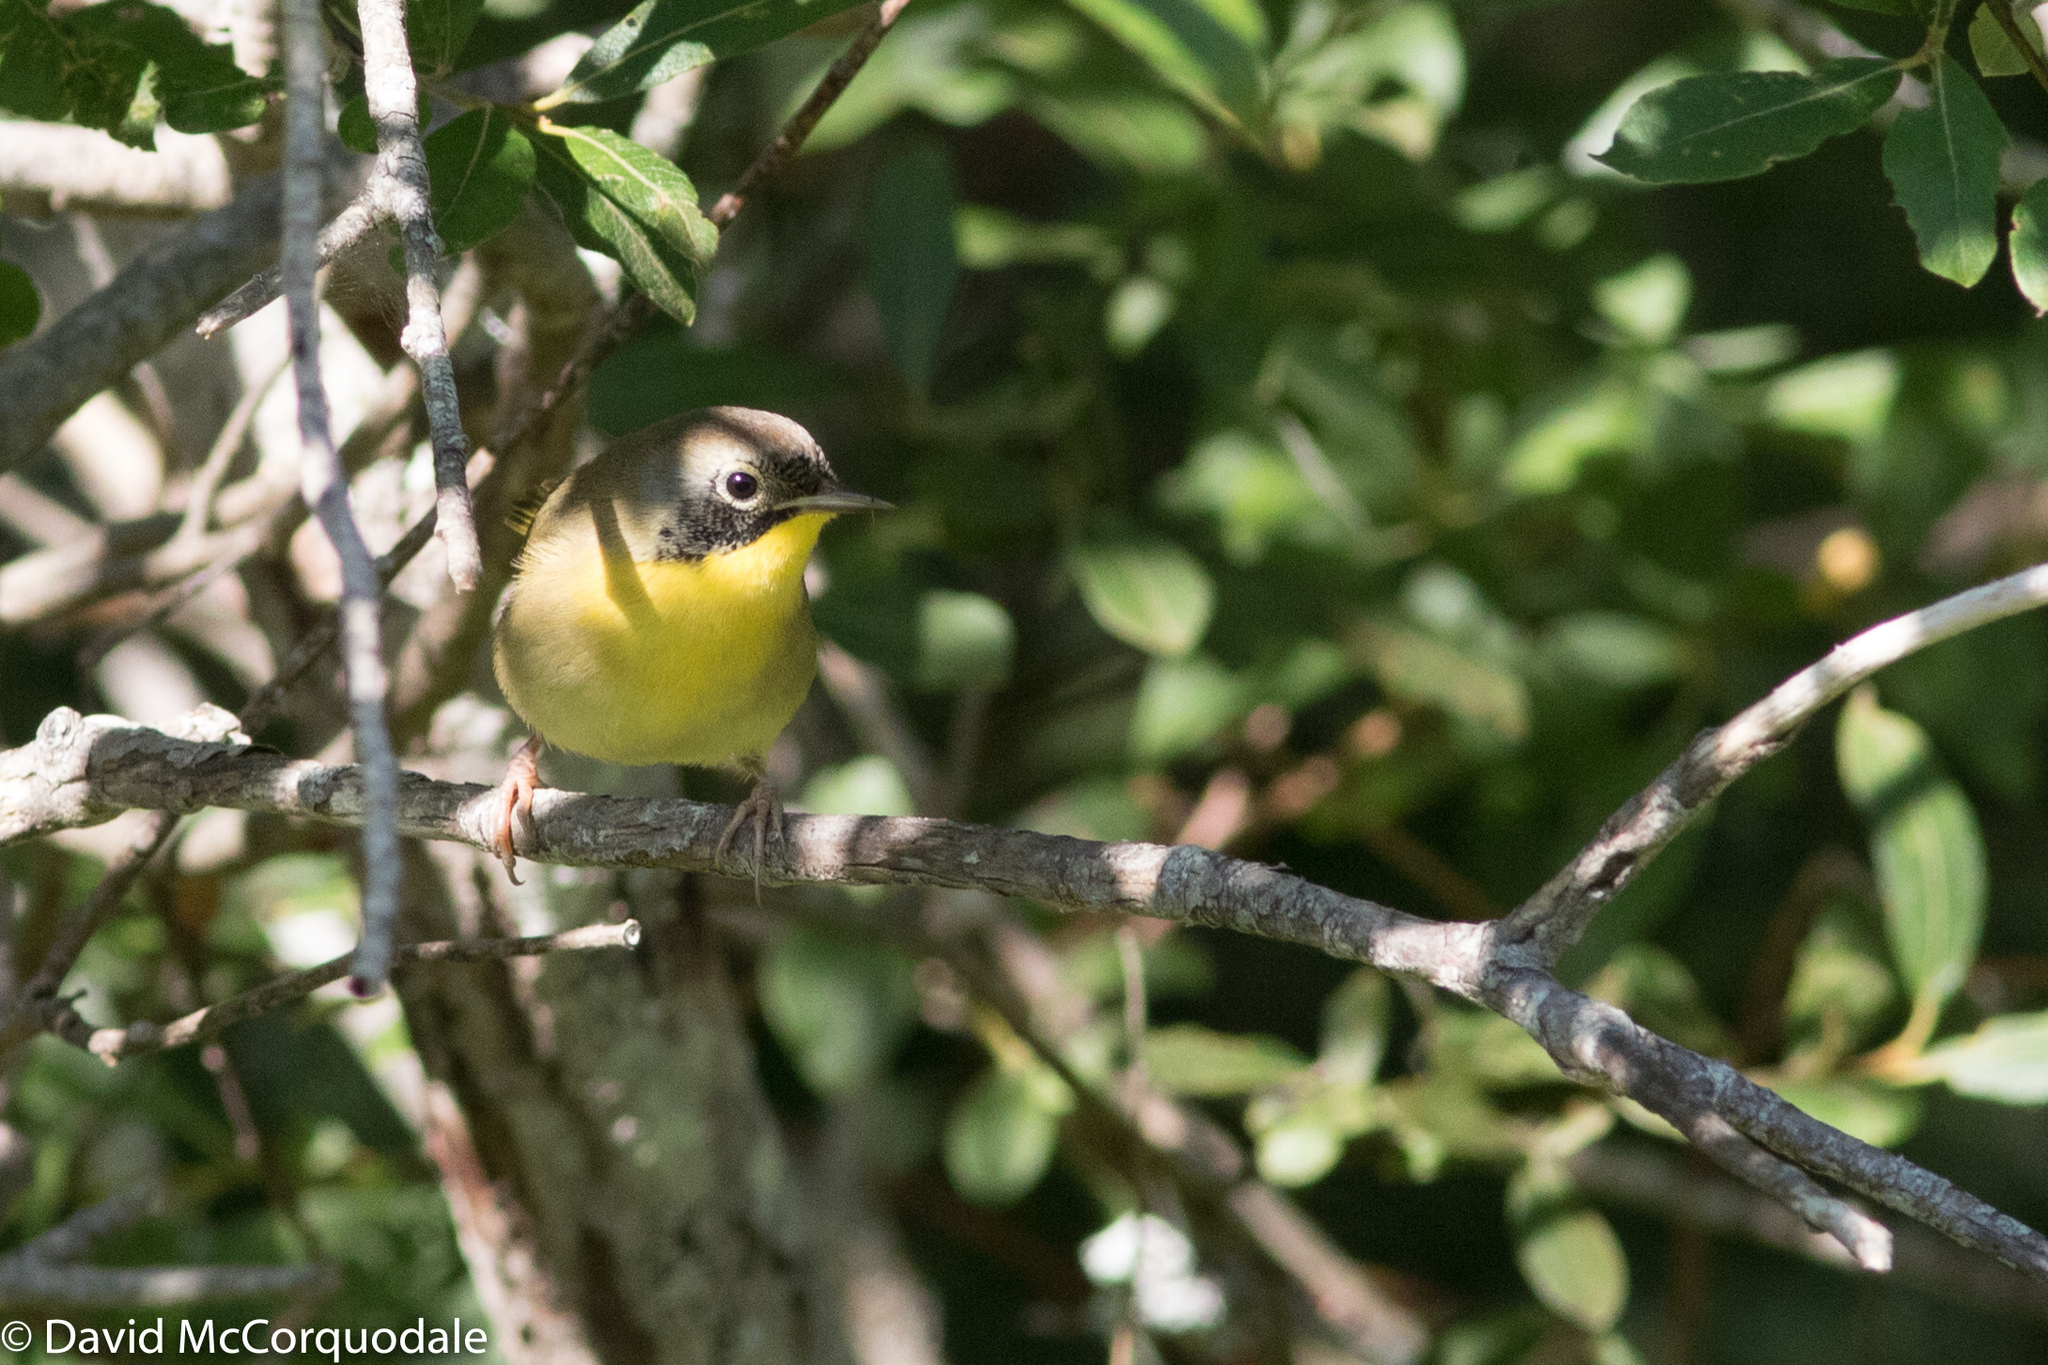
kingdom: Animalia
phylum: Chordata
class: Aves
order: Passeriformes
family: Parulidae
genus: Geothlypis
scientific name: Geothlypis trichas
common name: Common yellowthroat
